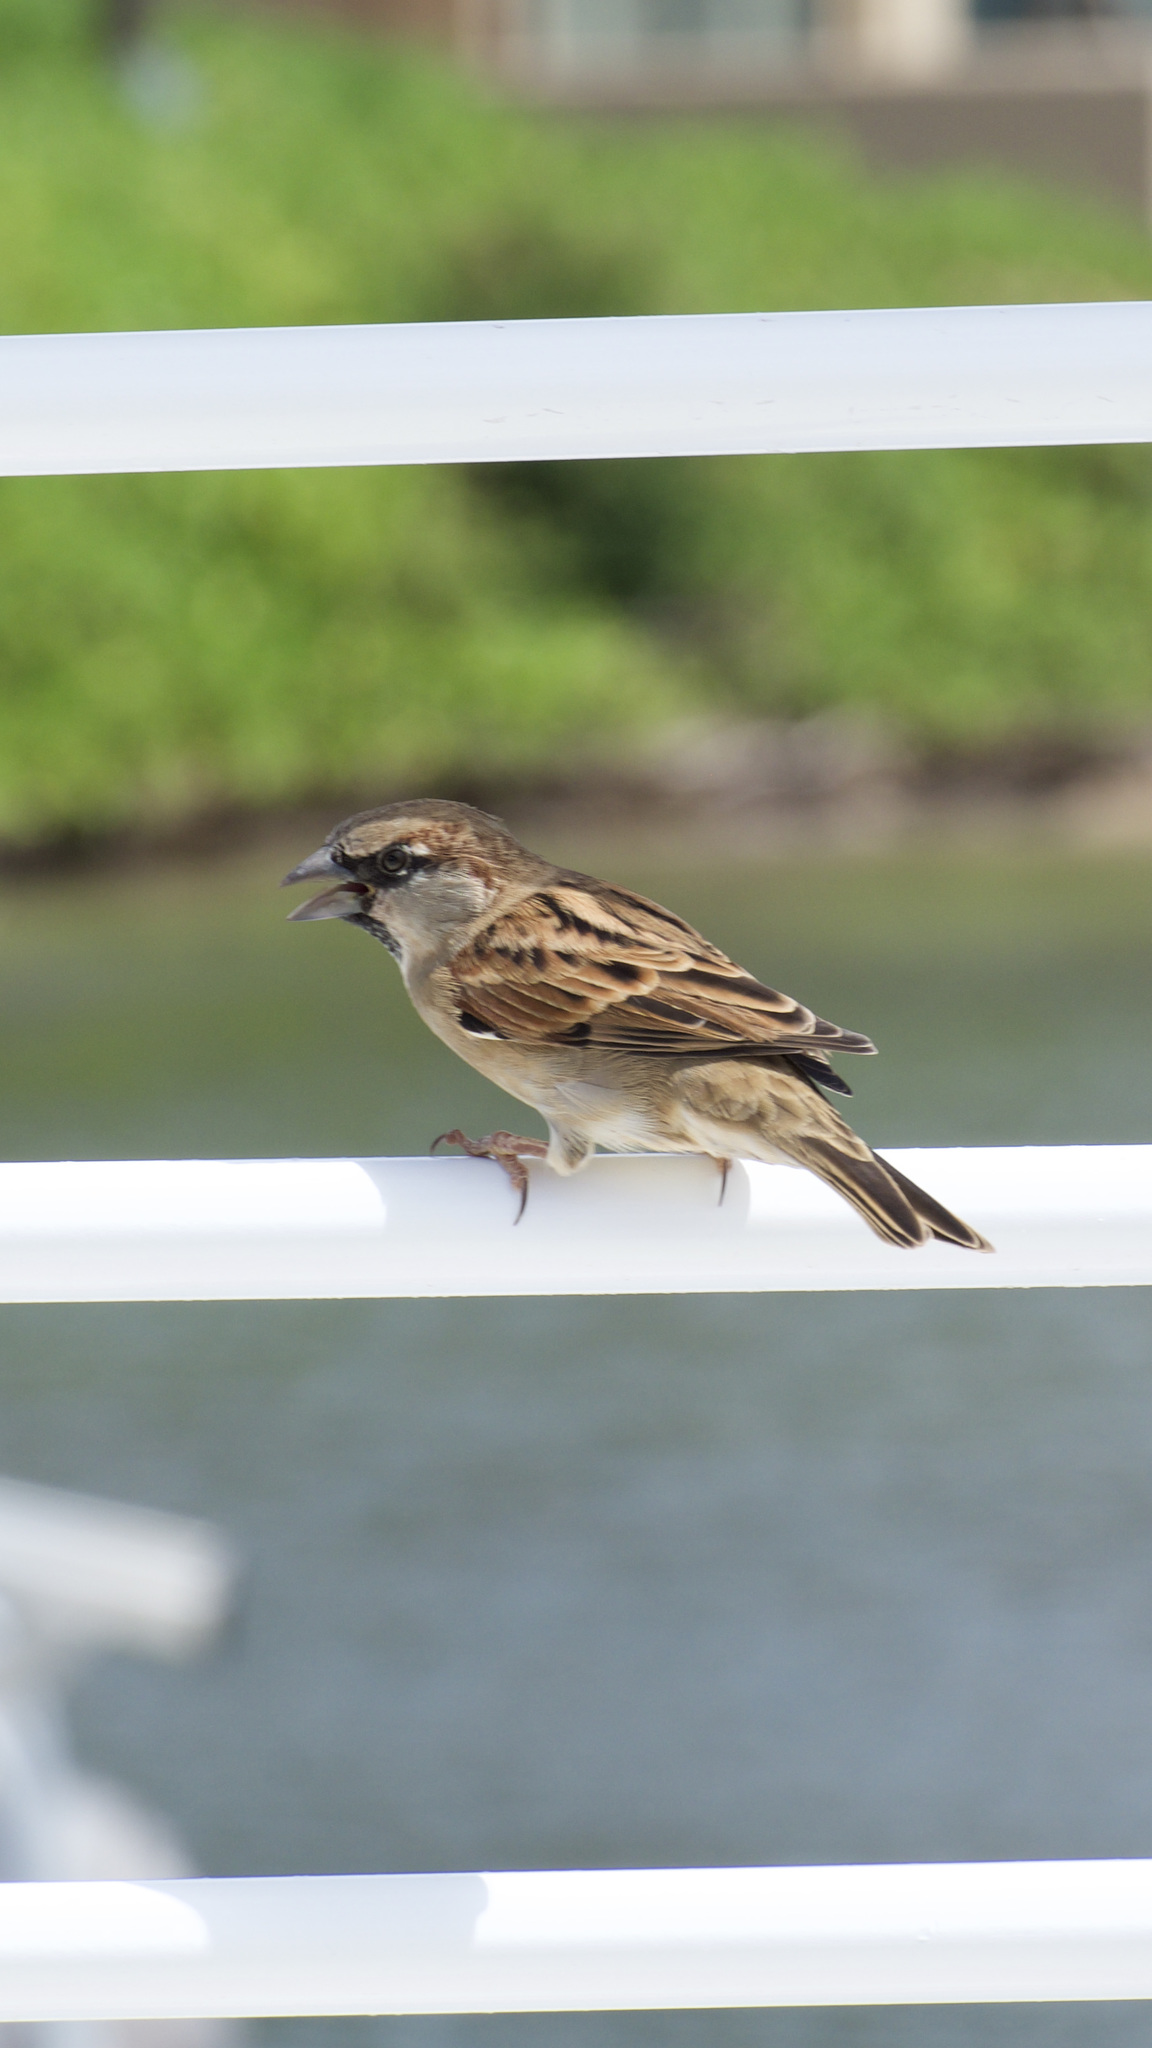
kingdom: Animalia
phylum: Chordata
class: Aves
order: Passeriformes
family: Passeridae
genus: Passer
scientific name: Passer domesticus
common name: House sparrow
